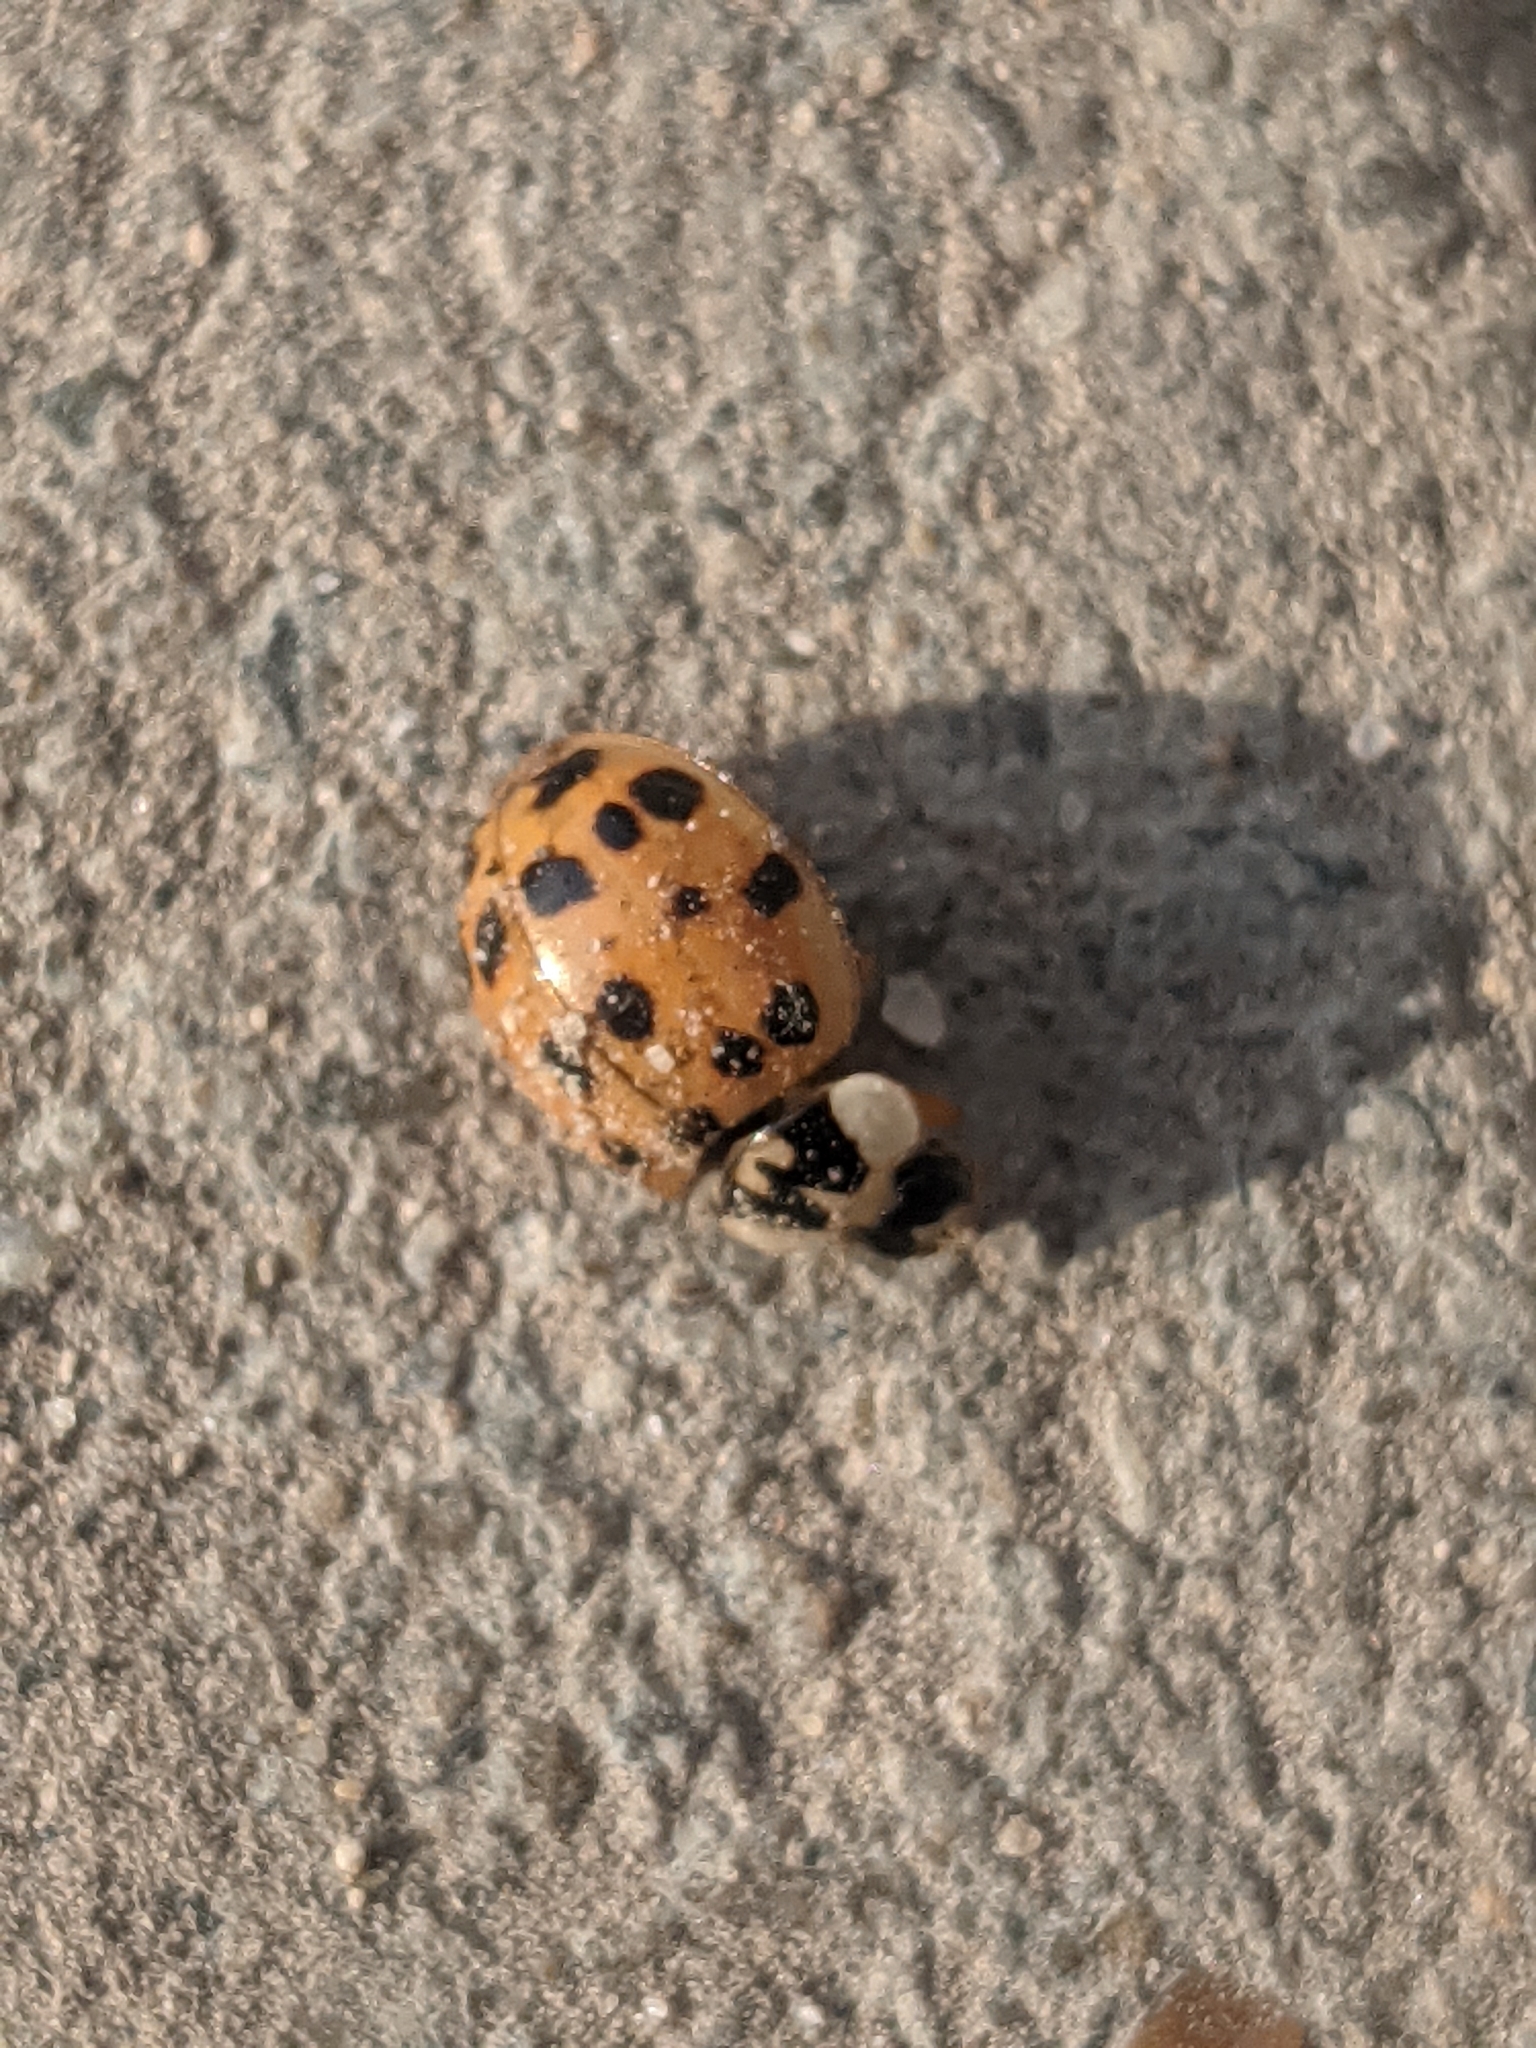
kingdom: Animalia
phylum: Arthropoda
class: Insecta
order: Coleoptera
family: Coccinellidae
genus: Harmonia
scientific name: Harmonia axyridis
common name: Harlequin ladybird
